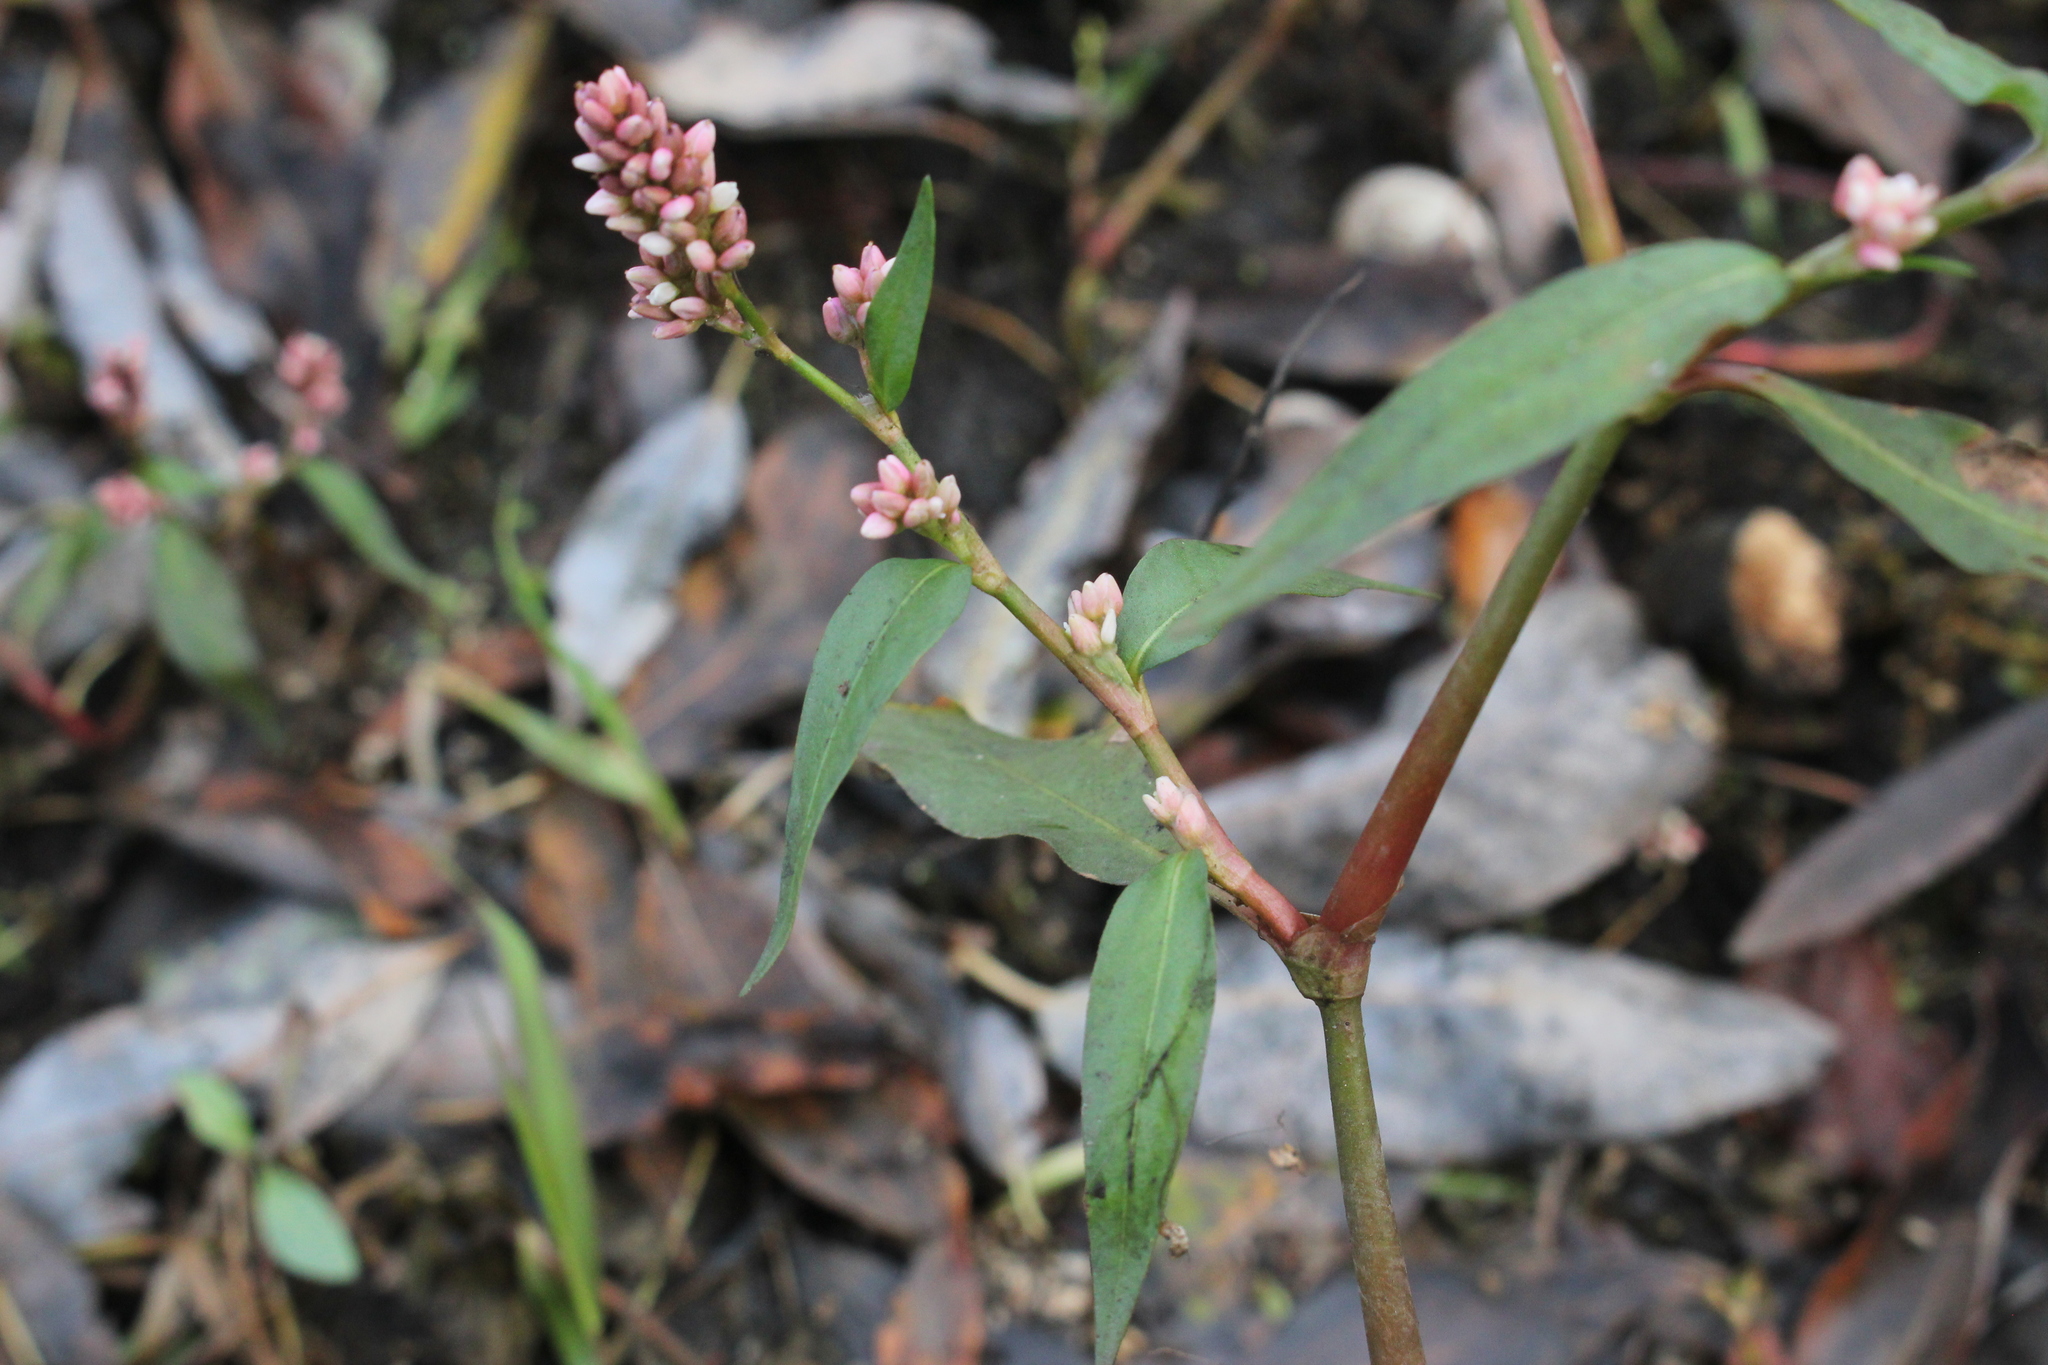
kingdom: Plantae
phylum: Tracheophyta
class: Magnoliopsida
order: Caryophyllales
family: Polygonaceae
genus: Persicaria
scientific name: Persicaria maculosa
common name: Redshank
